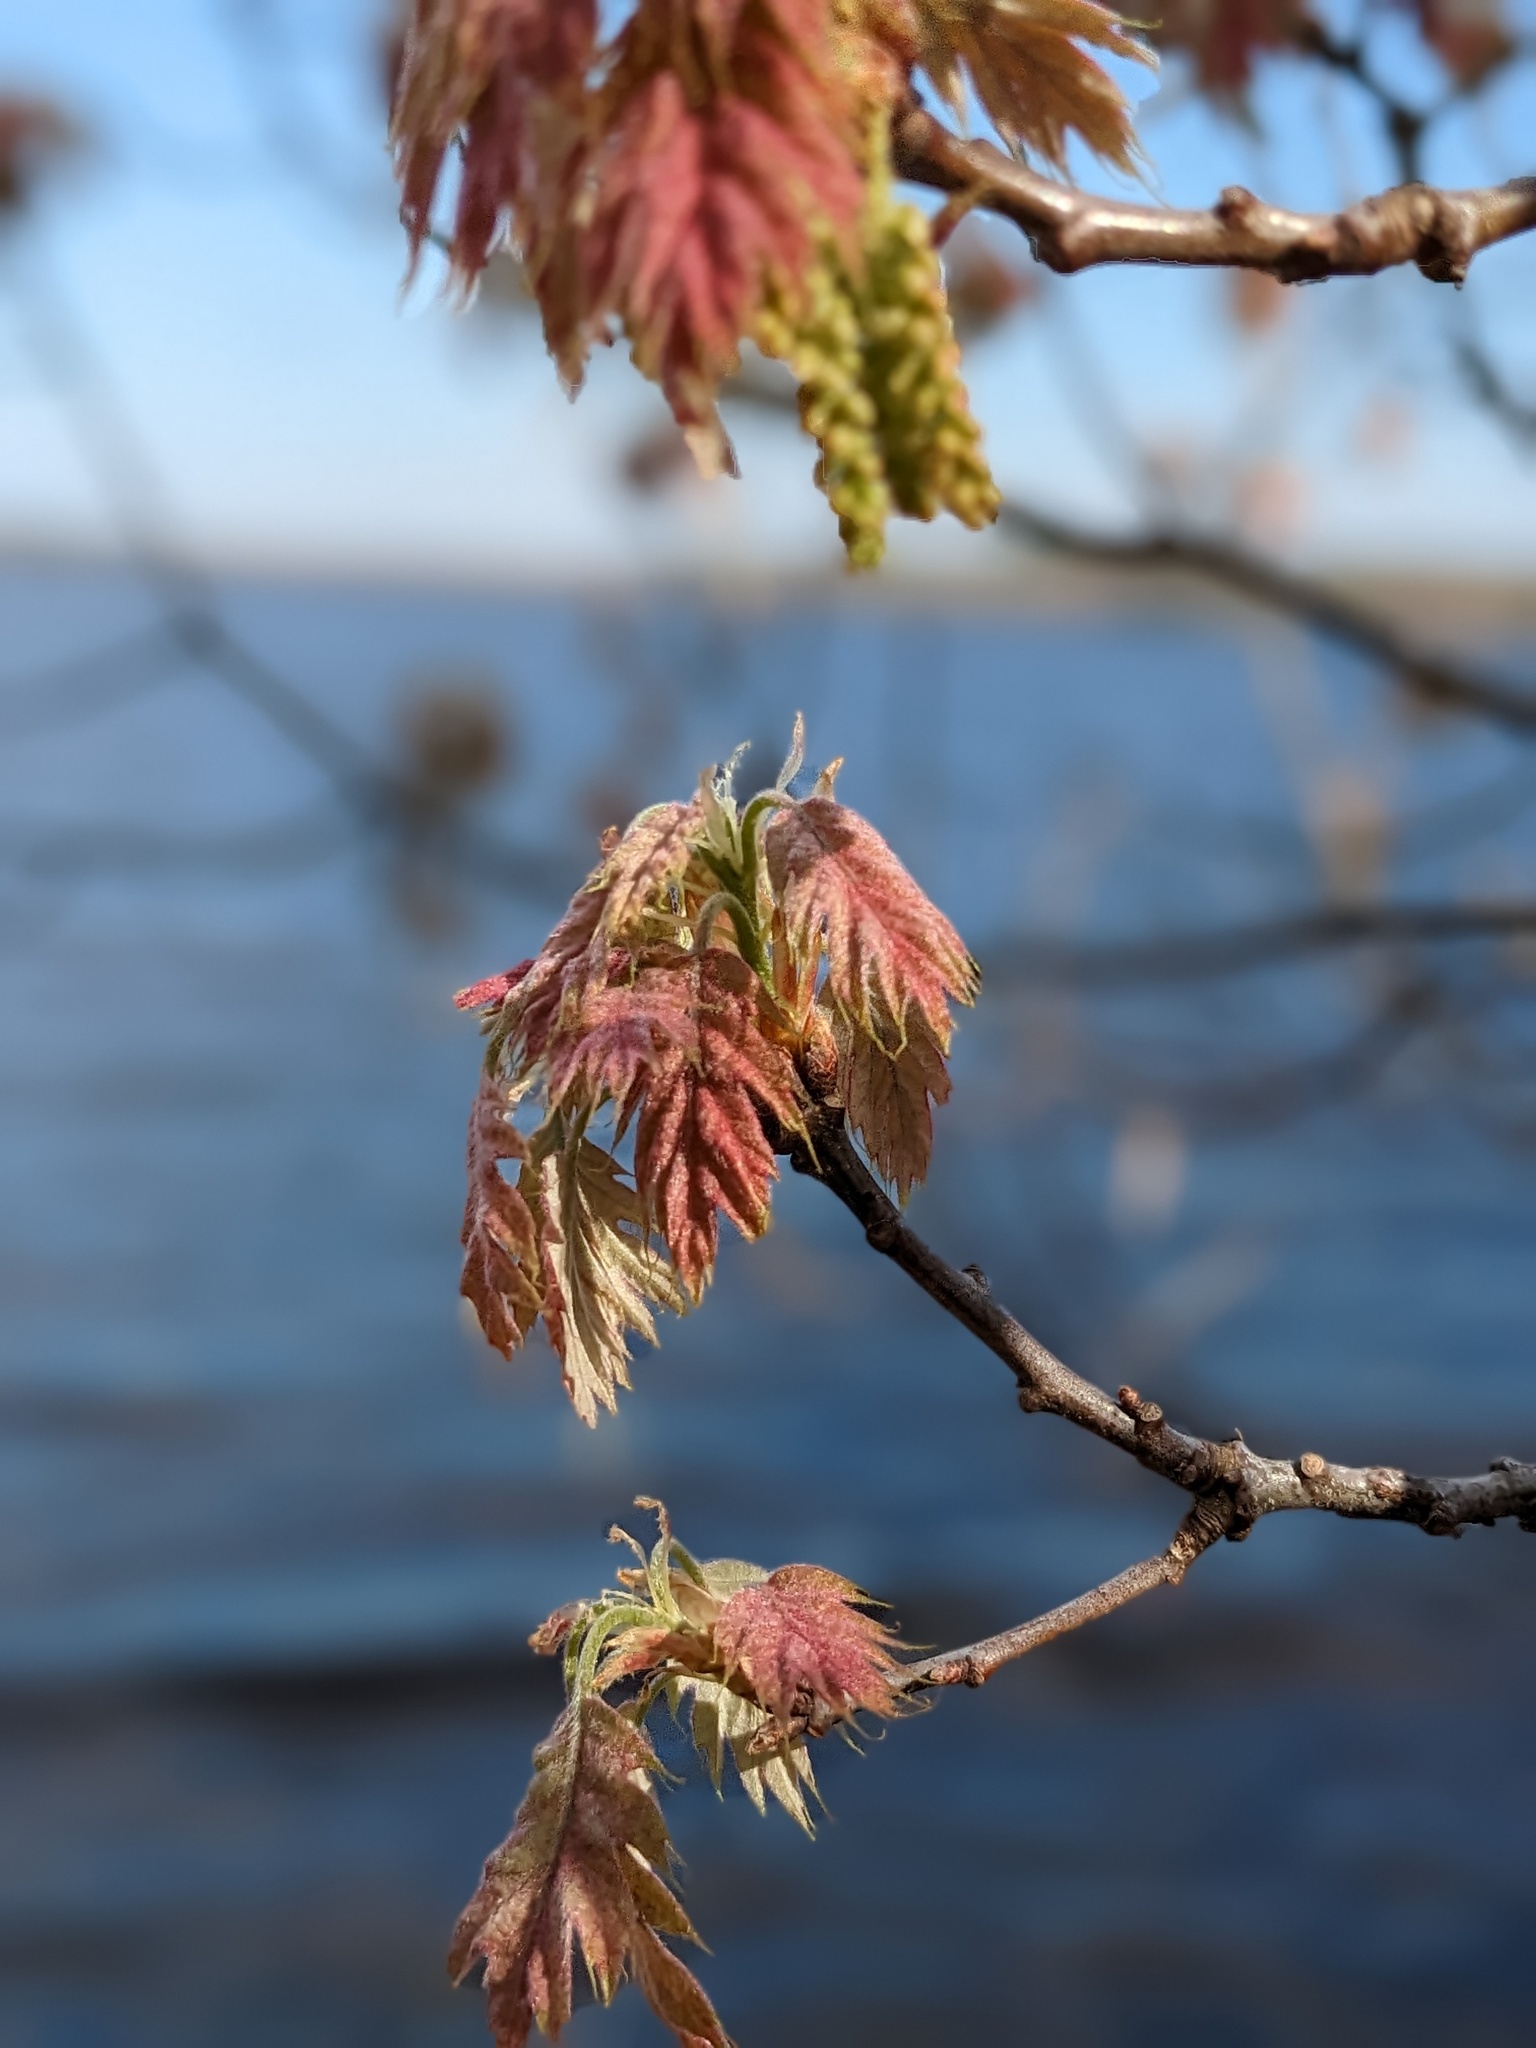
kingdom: Plantae
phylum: Tracheophyta
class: Magnoliopsida
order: Fagales
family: Fagaceae
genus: Quercus
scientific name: Quercus rubra
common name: Red oak
